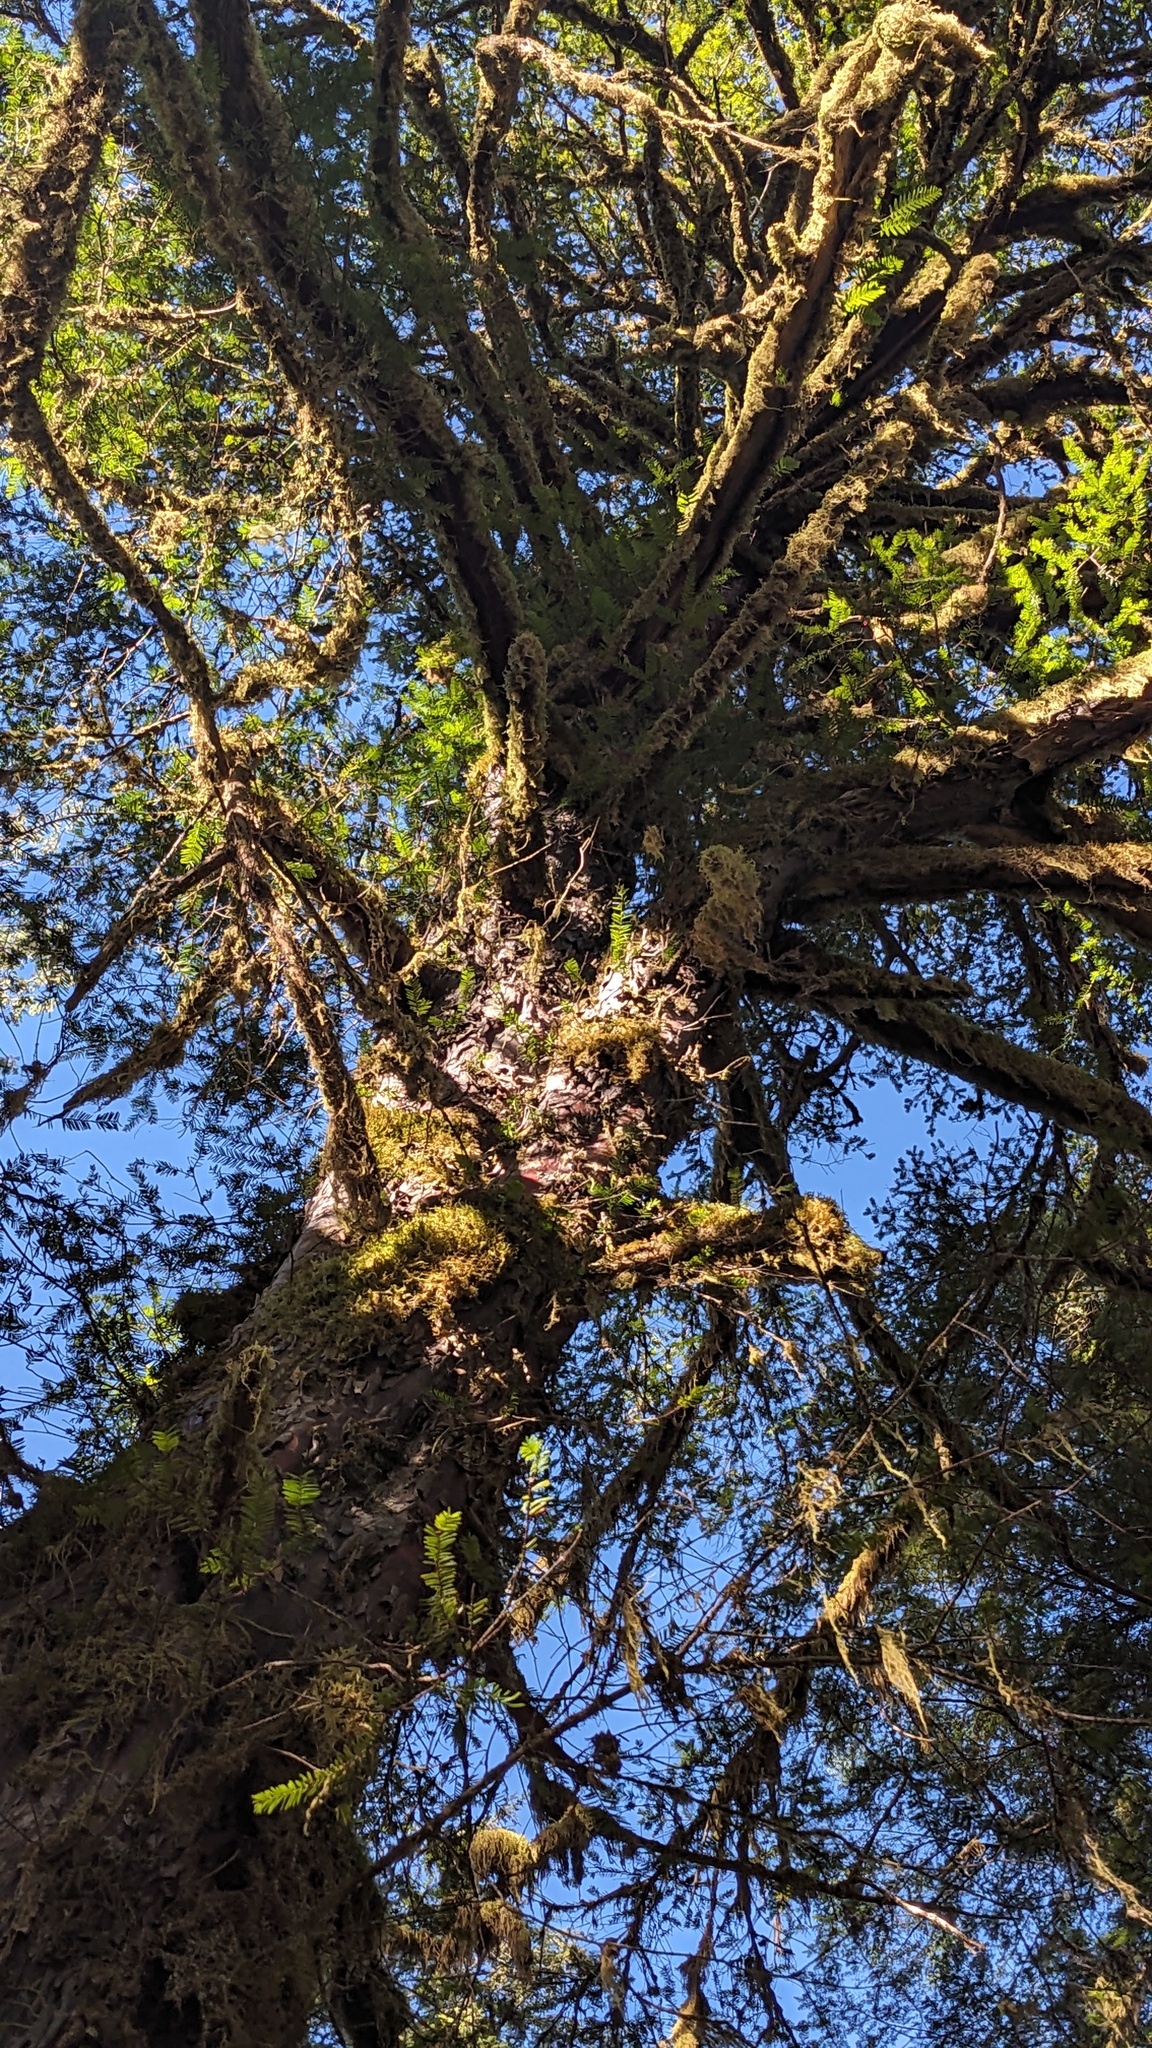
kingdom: Plantae
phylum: Tracheophyta
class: Pinopsida
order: Pinales
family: Taxaceae
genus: Taxus
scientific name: Taxus brevifolia
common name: Pacific yew
